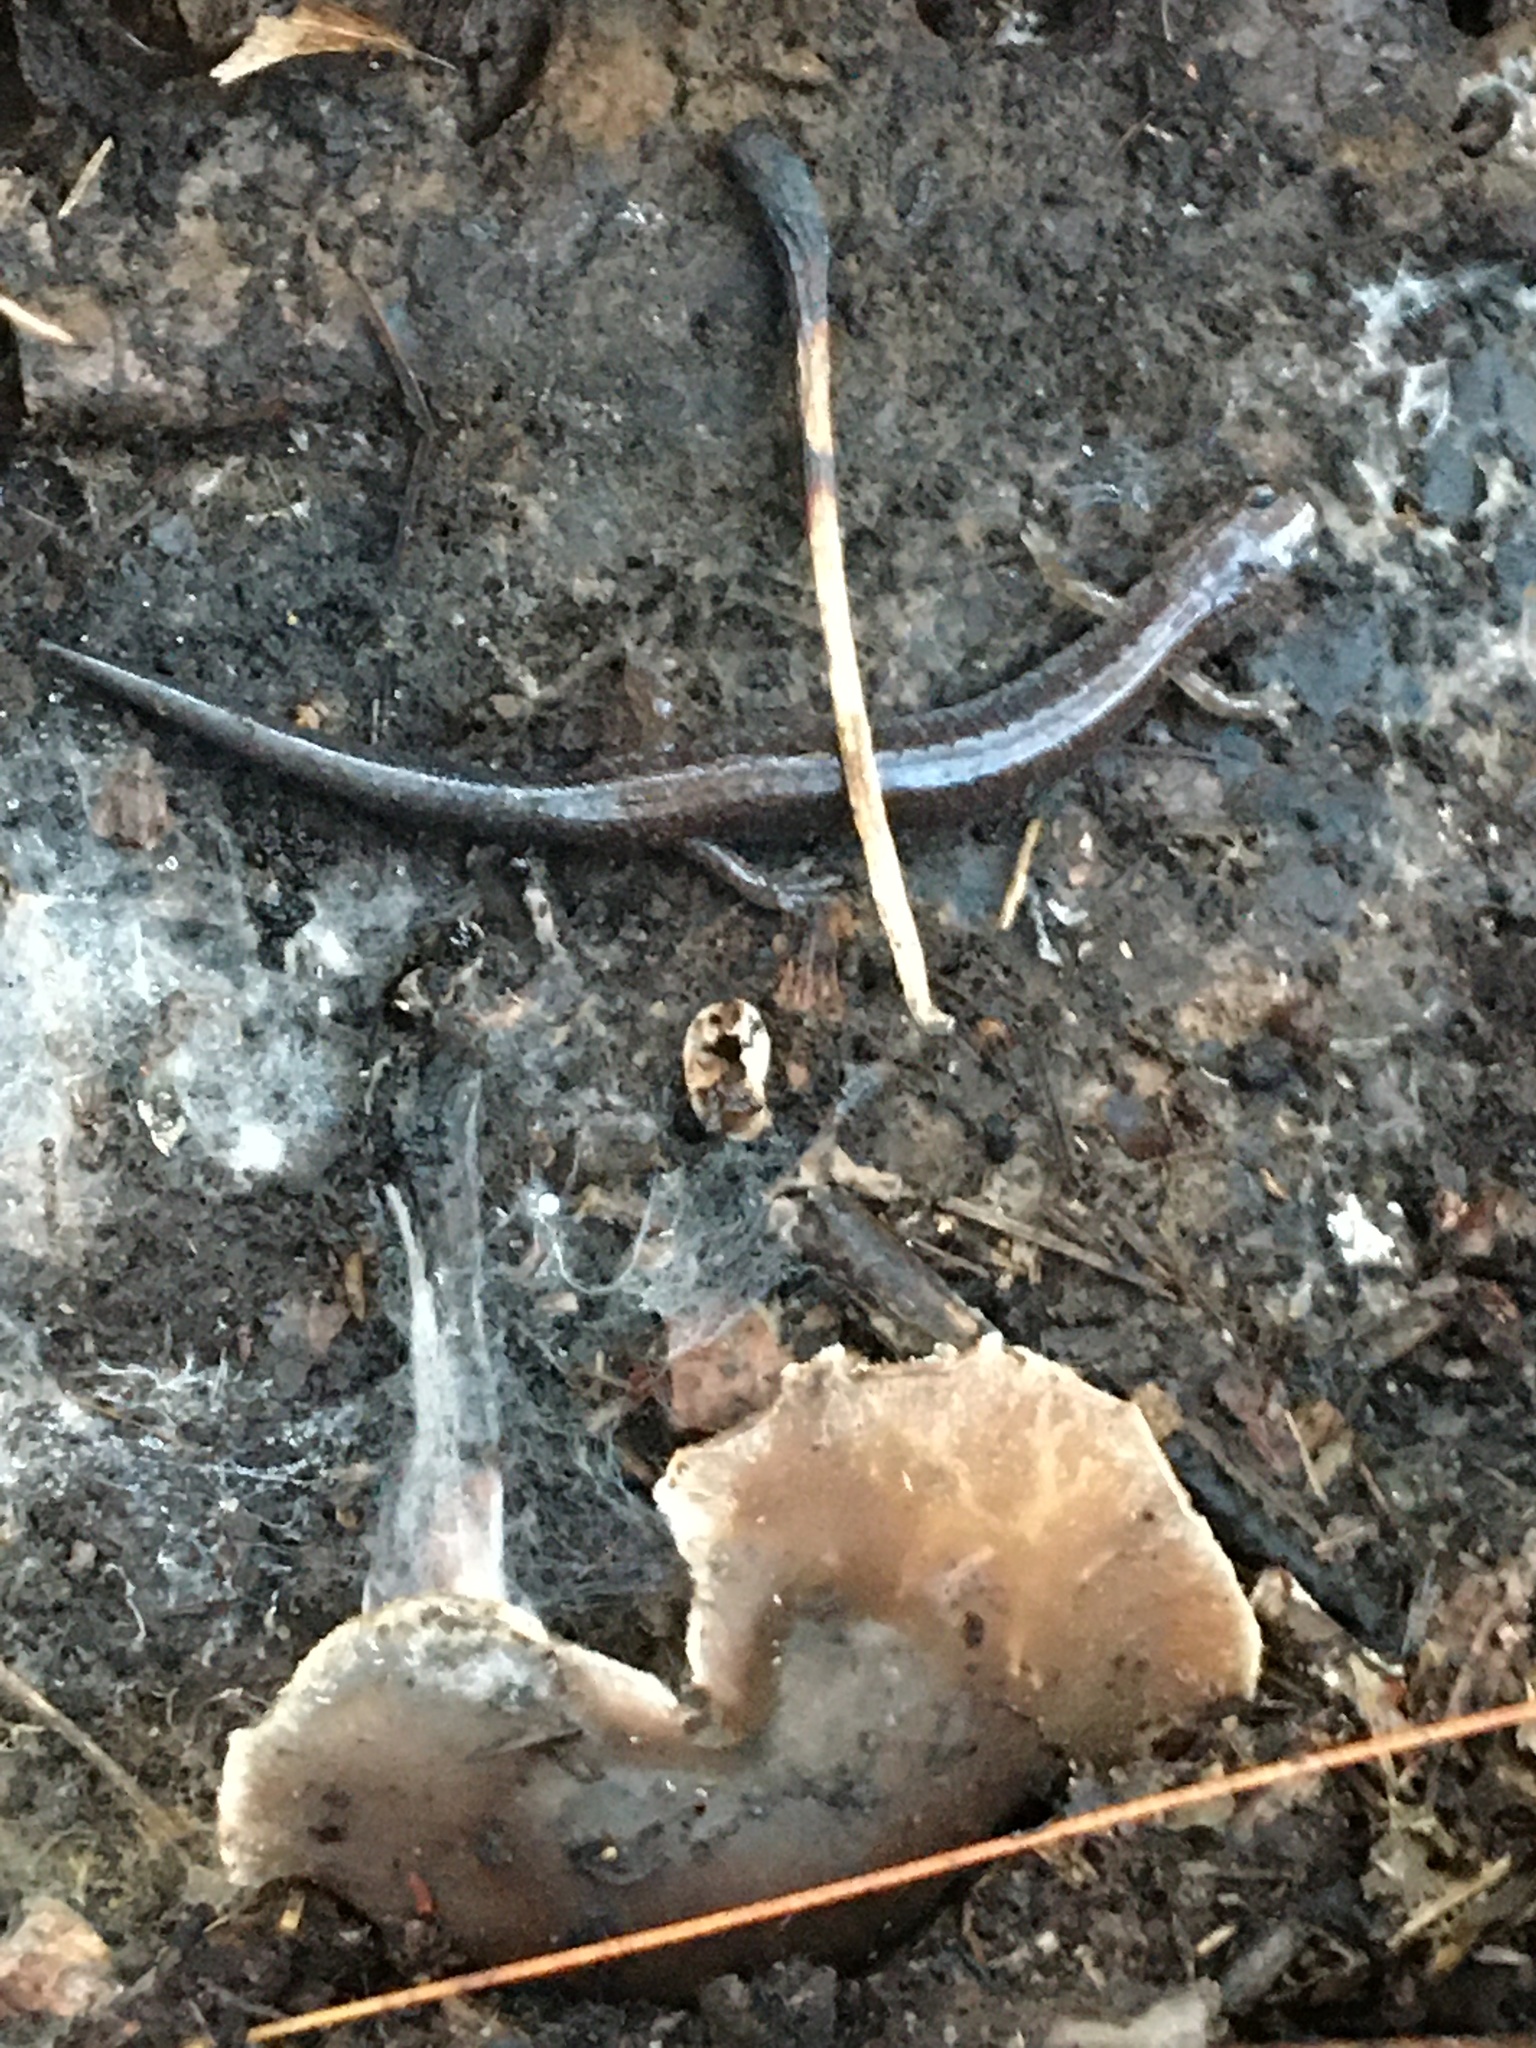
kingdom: Animalia
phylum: Chordata
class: Amphibia
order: Caudata
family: Plethodontidae
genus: Plethodon
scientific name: Plethodon cinereus
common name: Redback salamander
